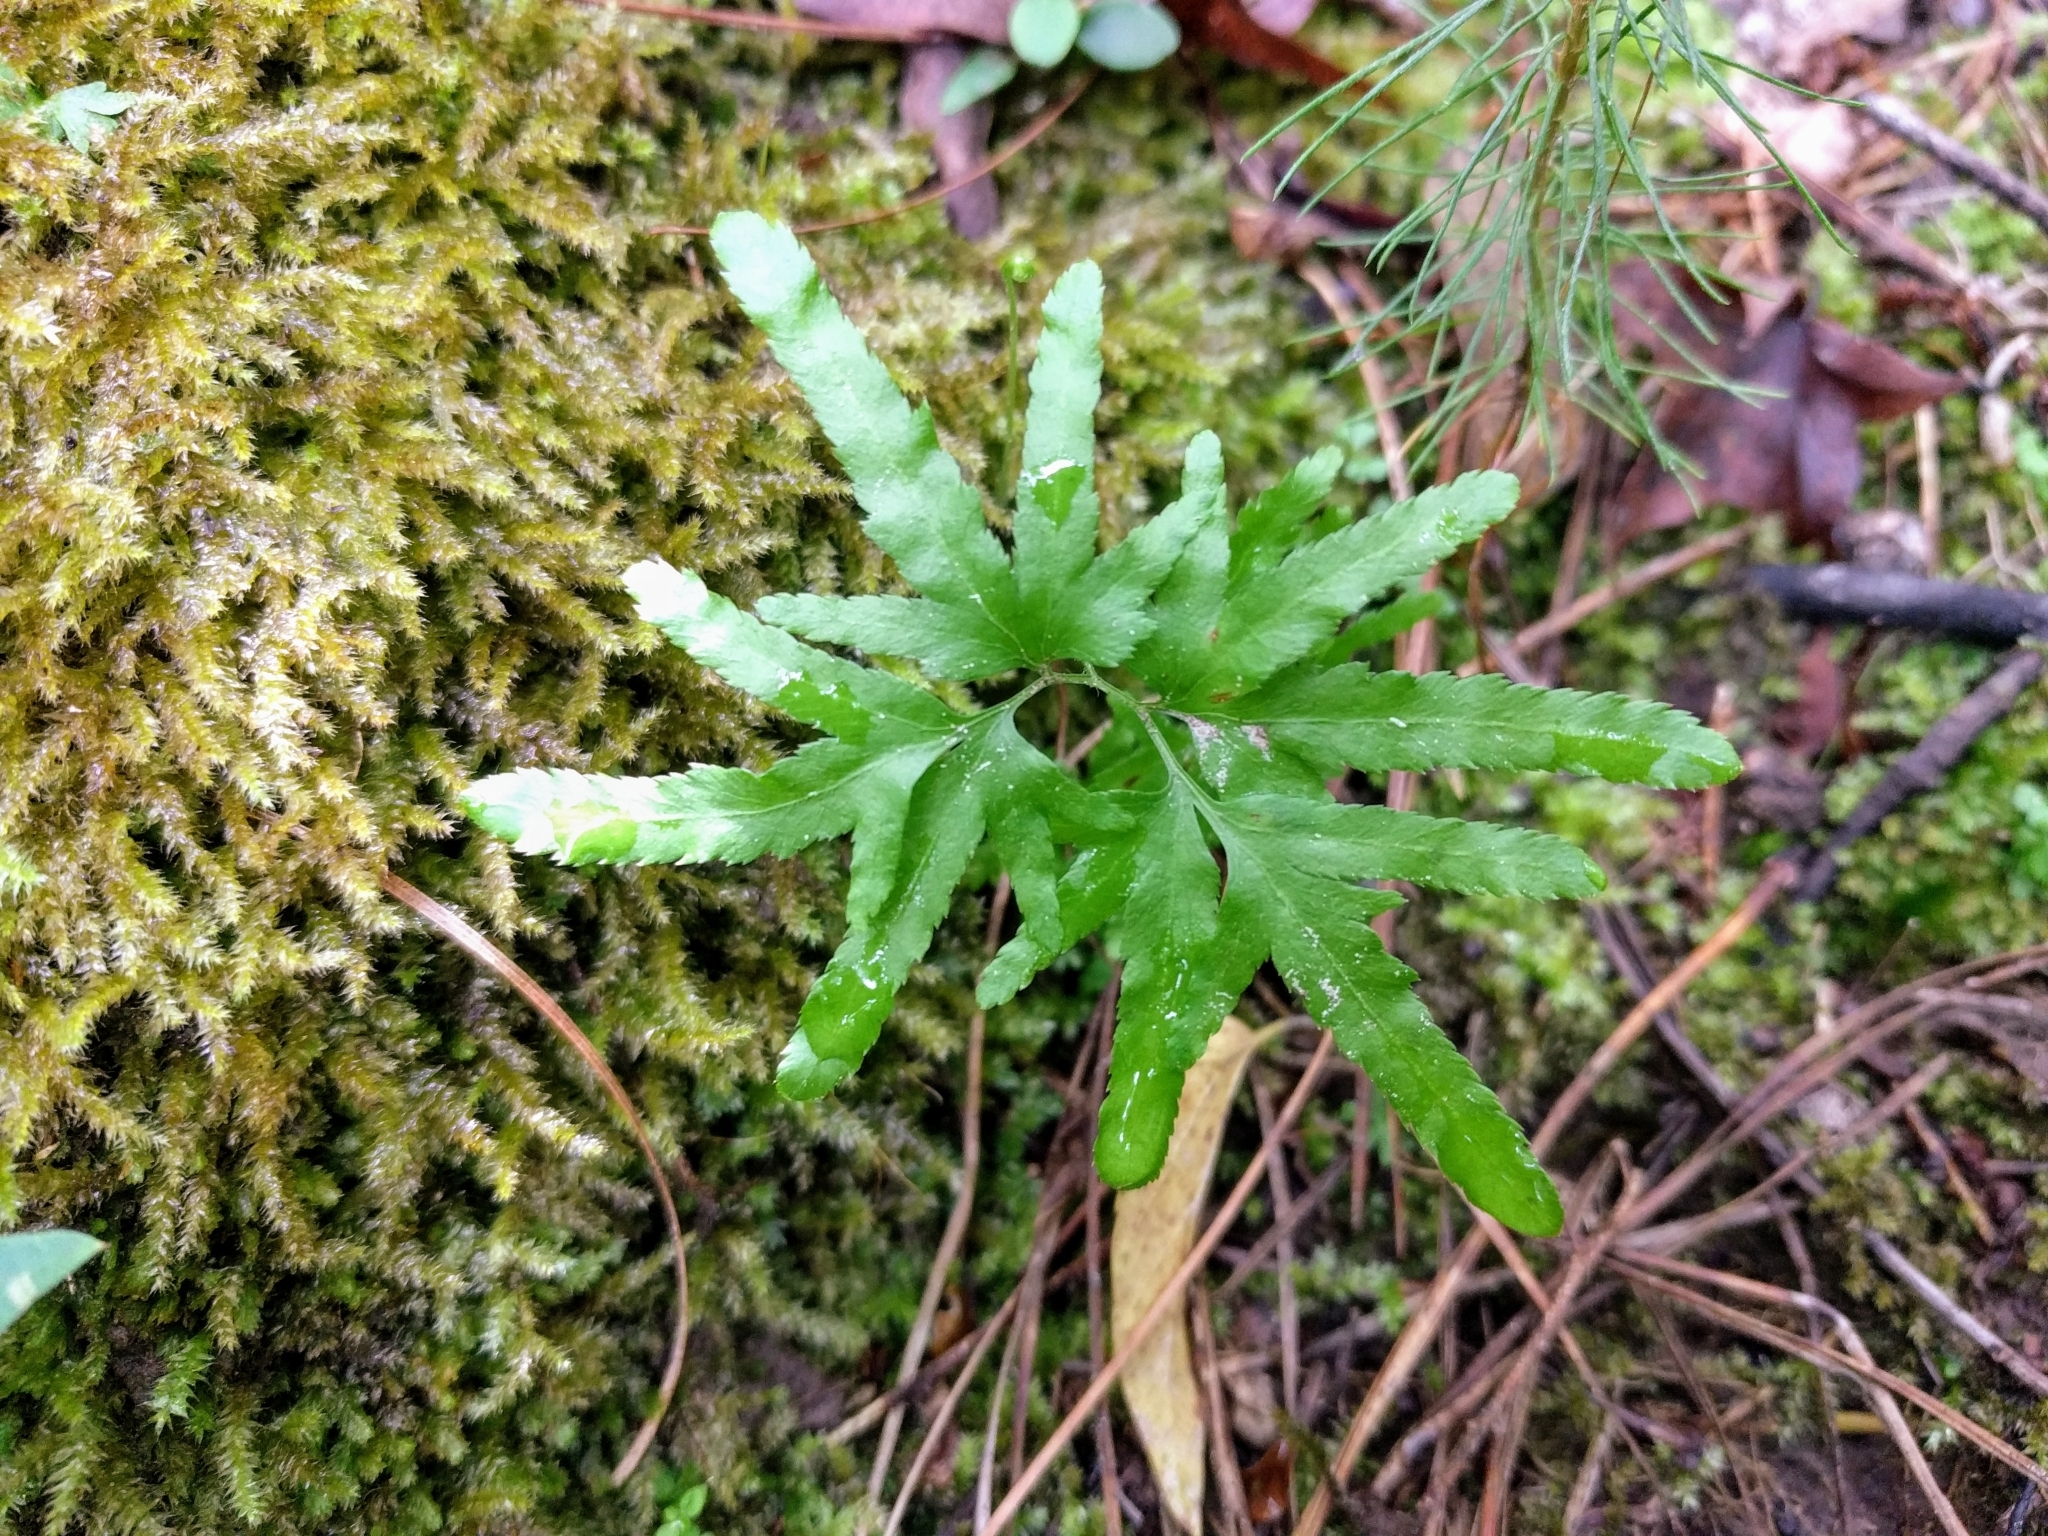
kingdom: Plantae
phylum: Tracheophyta
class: Polypodiopsida
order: Schizaeales
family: Lygodiaceae
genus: Lygodium
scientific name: Lygodium japonicum
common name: Japanese climbing fern
